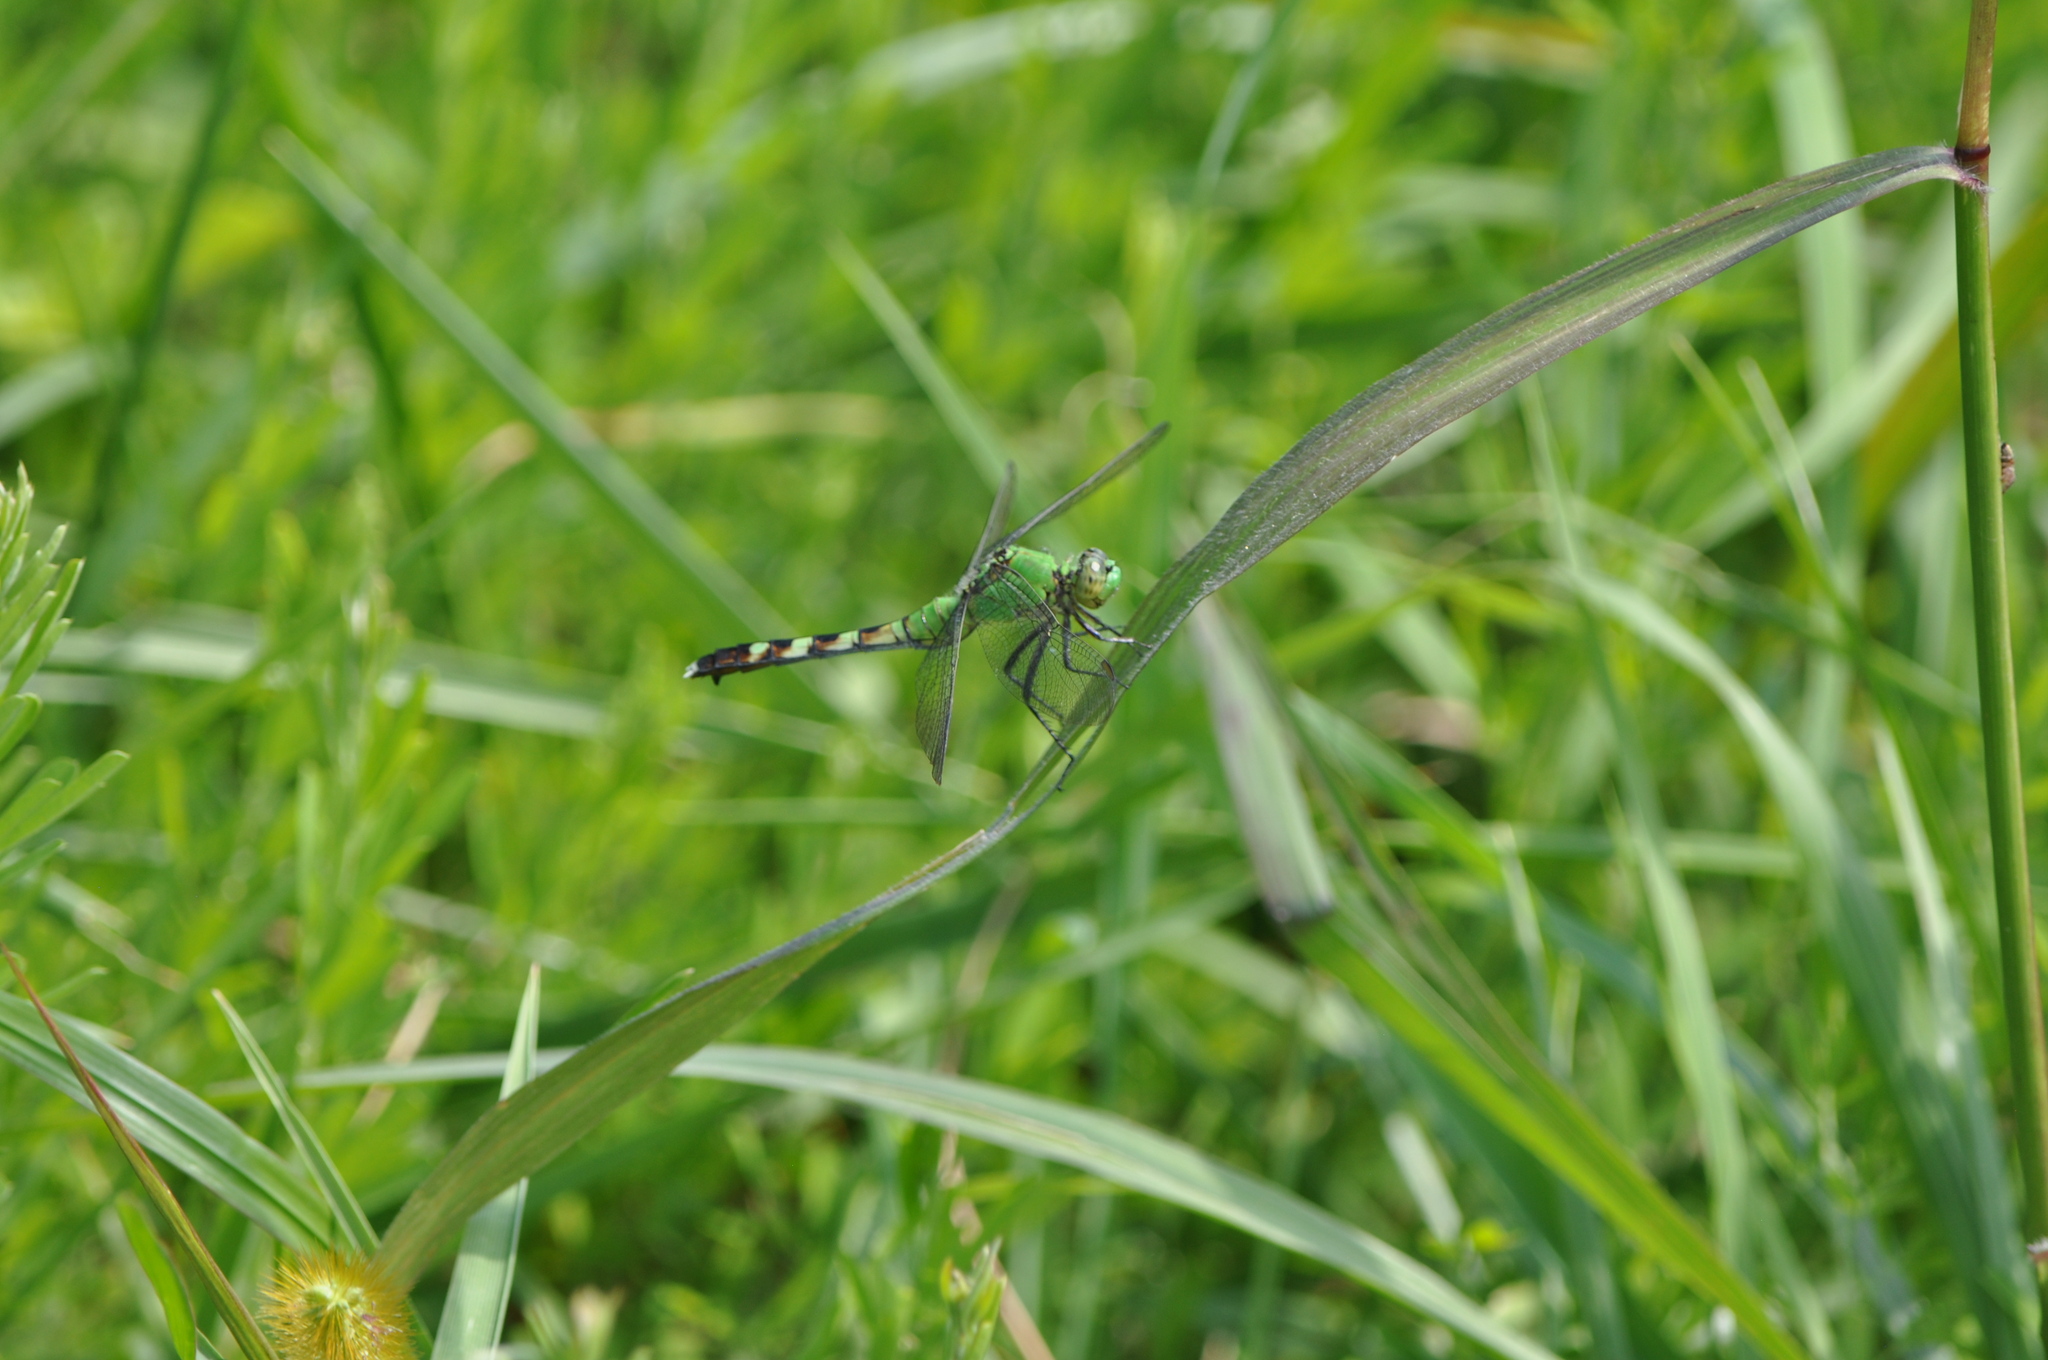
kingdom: Animalia
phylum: Arthropoda
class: Insecta
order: Odonata
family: Libellulidae
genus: Erythemis
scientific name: Erythemis simplicicollis
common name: Eastern pondhawk
